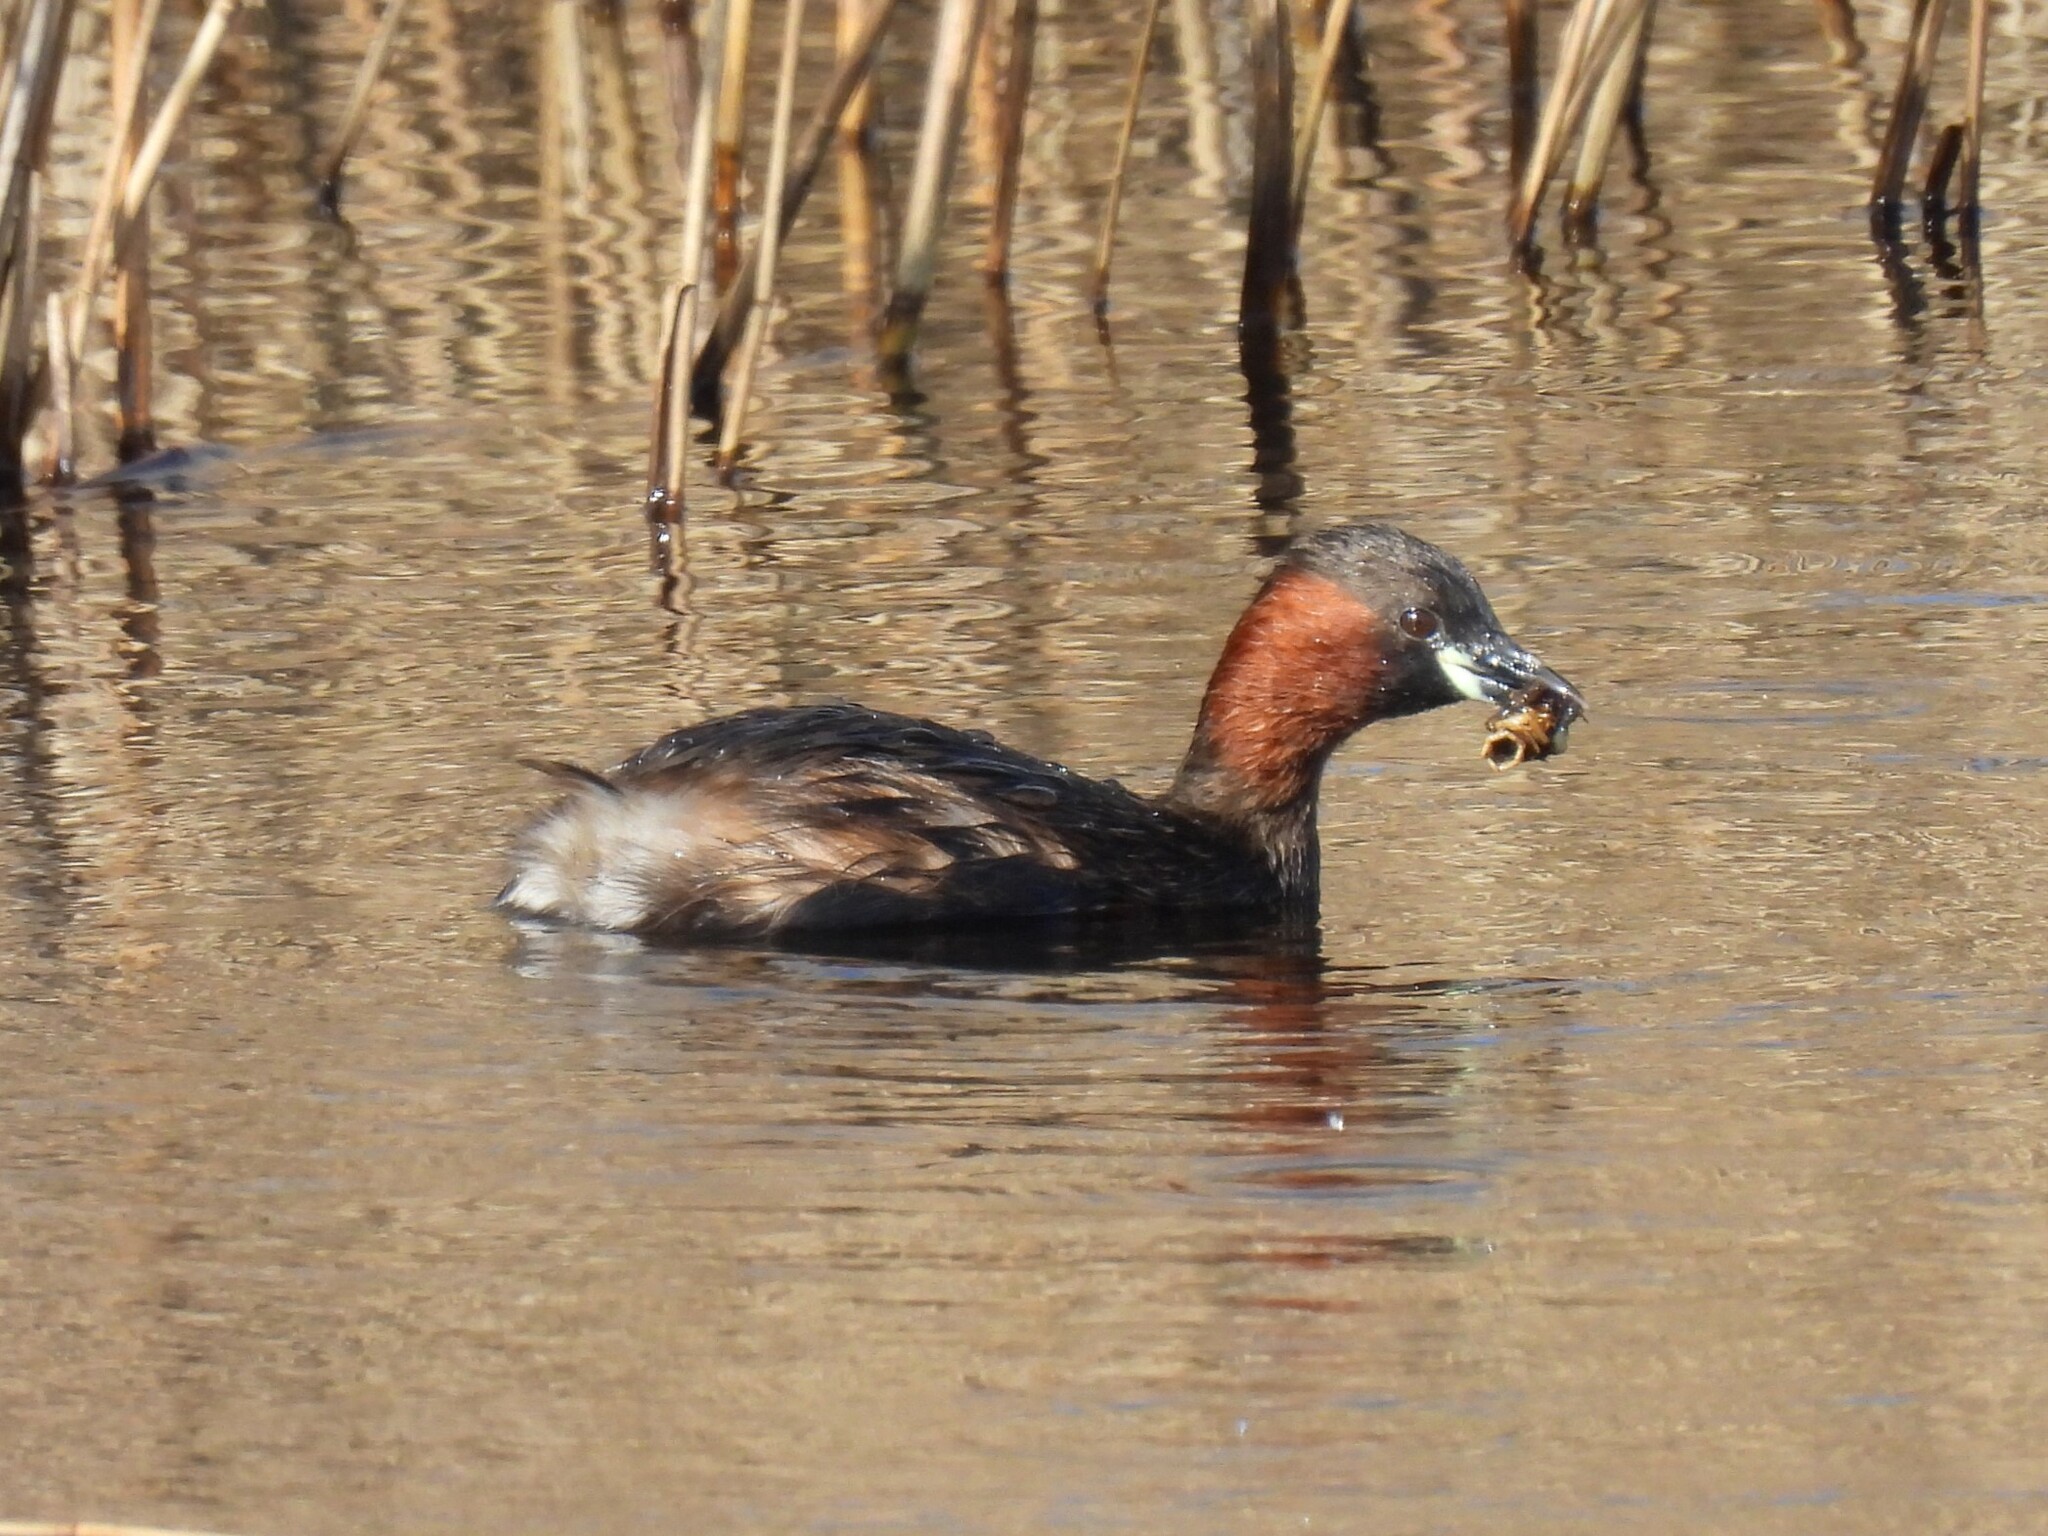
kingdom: Animalia
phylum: Chordata
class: Aves
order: Podicipediformes
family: Podicipedidae
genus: Tachybaptus
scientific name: Tachybaptus ruficollis
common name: Little grebe
